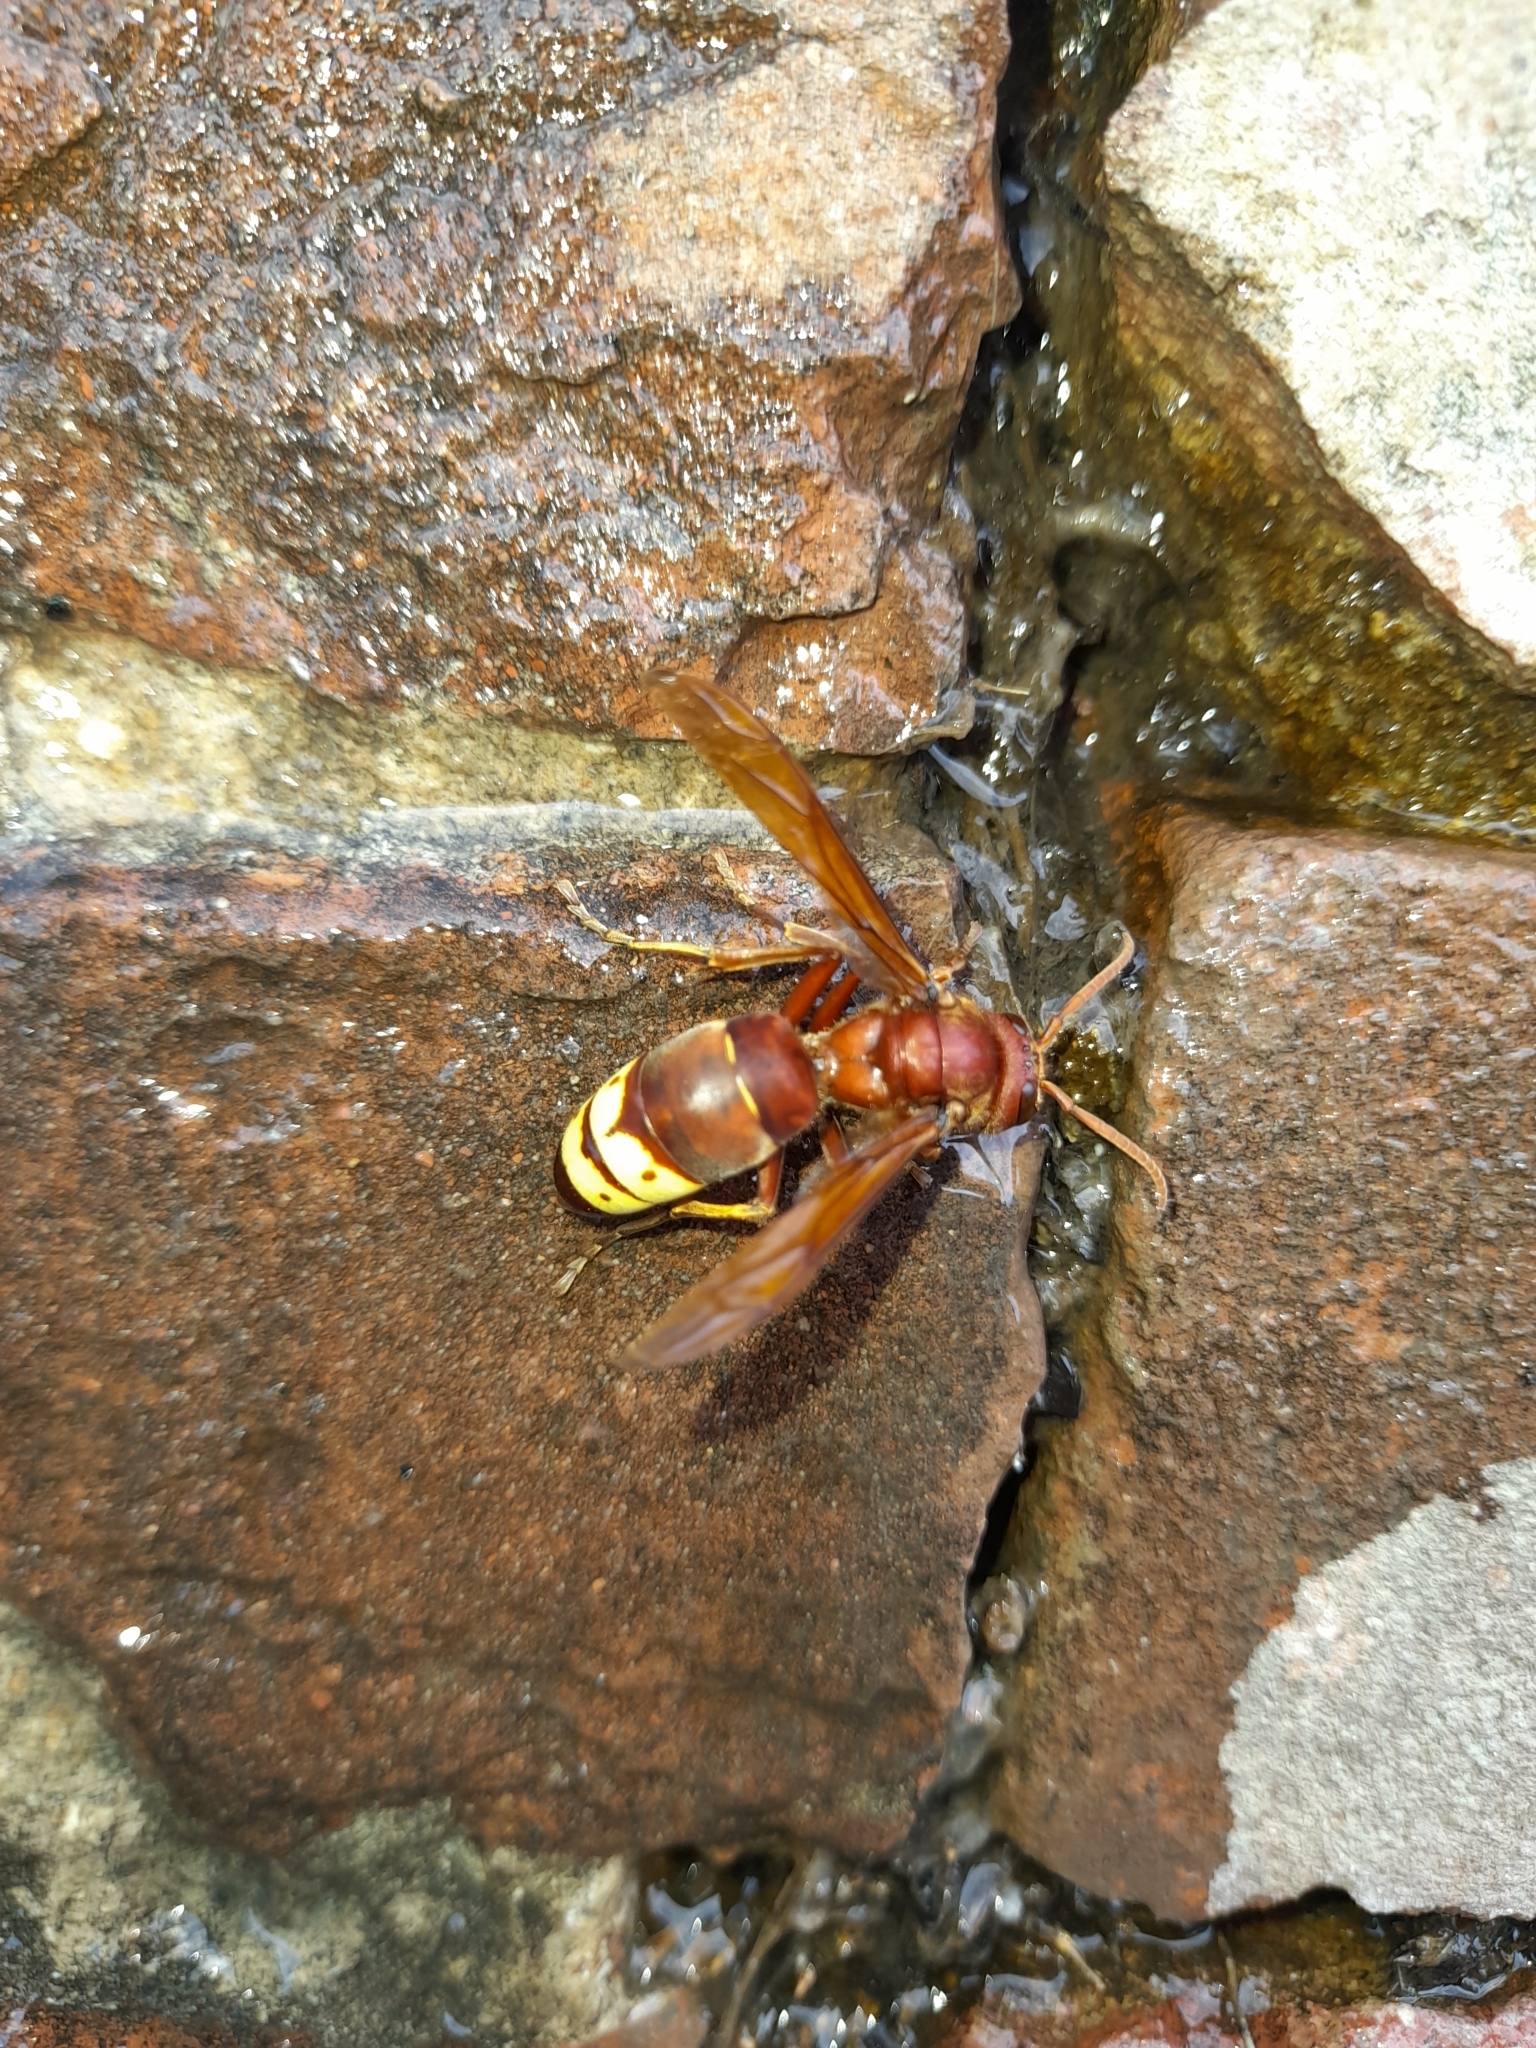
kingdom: Animalia
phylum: Arthropoda
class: Insecta
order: Hymenoptera
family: Vespidae
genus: Vespa
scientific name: Vespa orientalis
